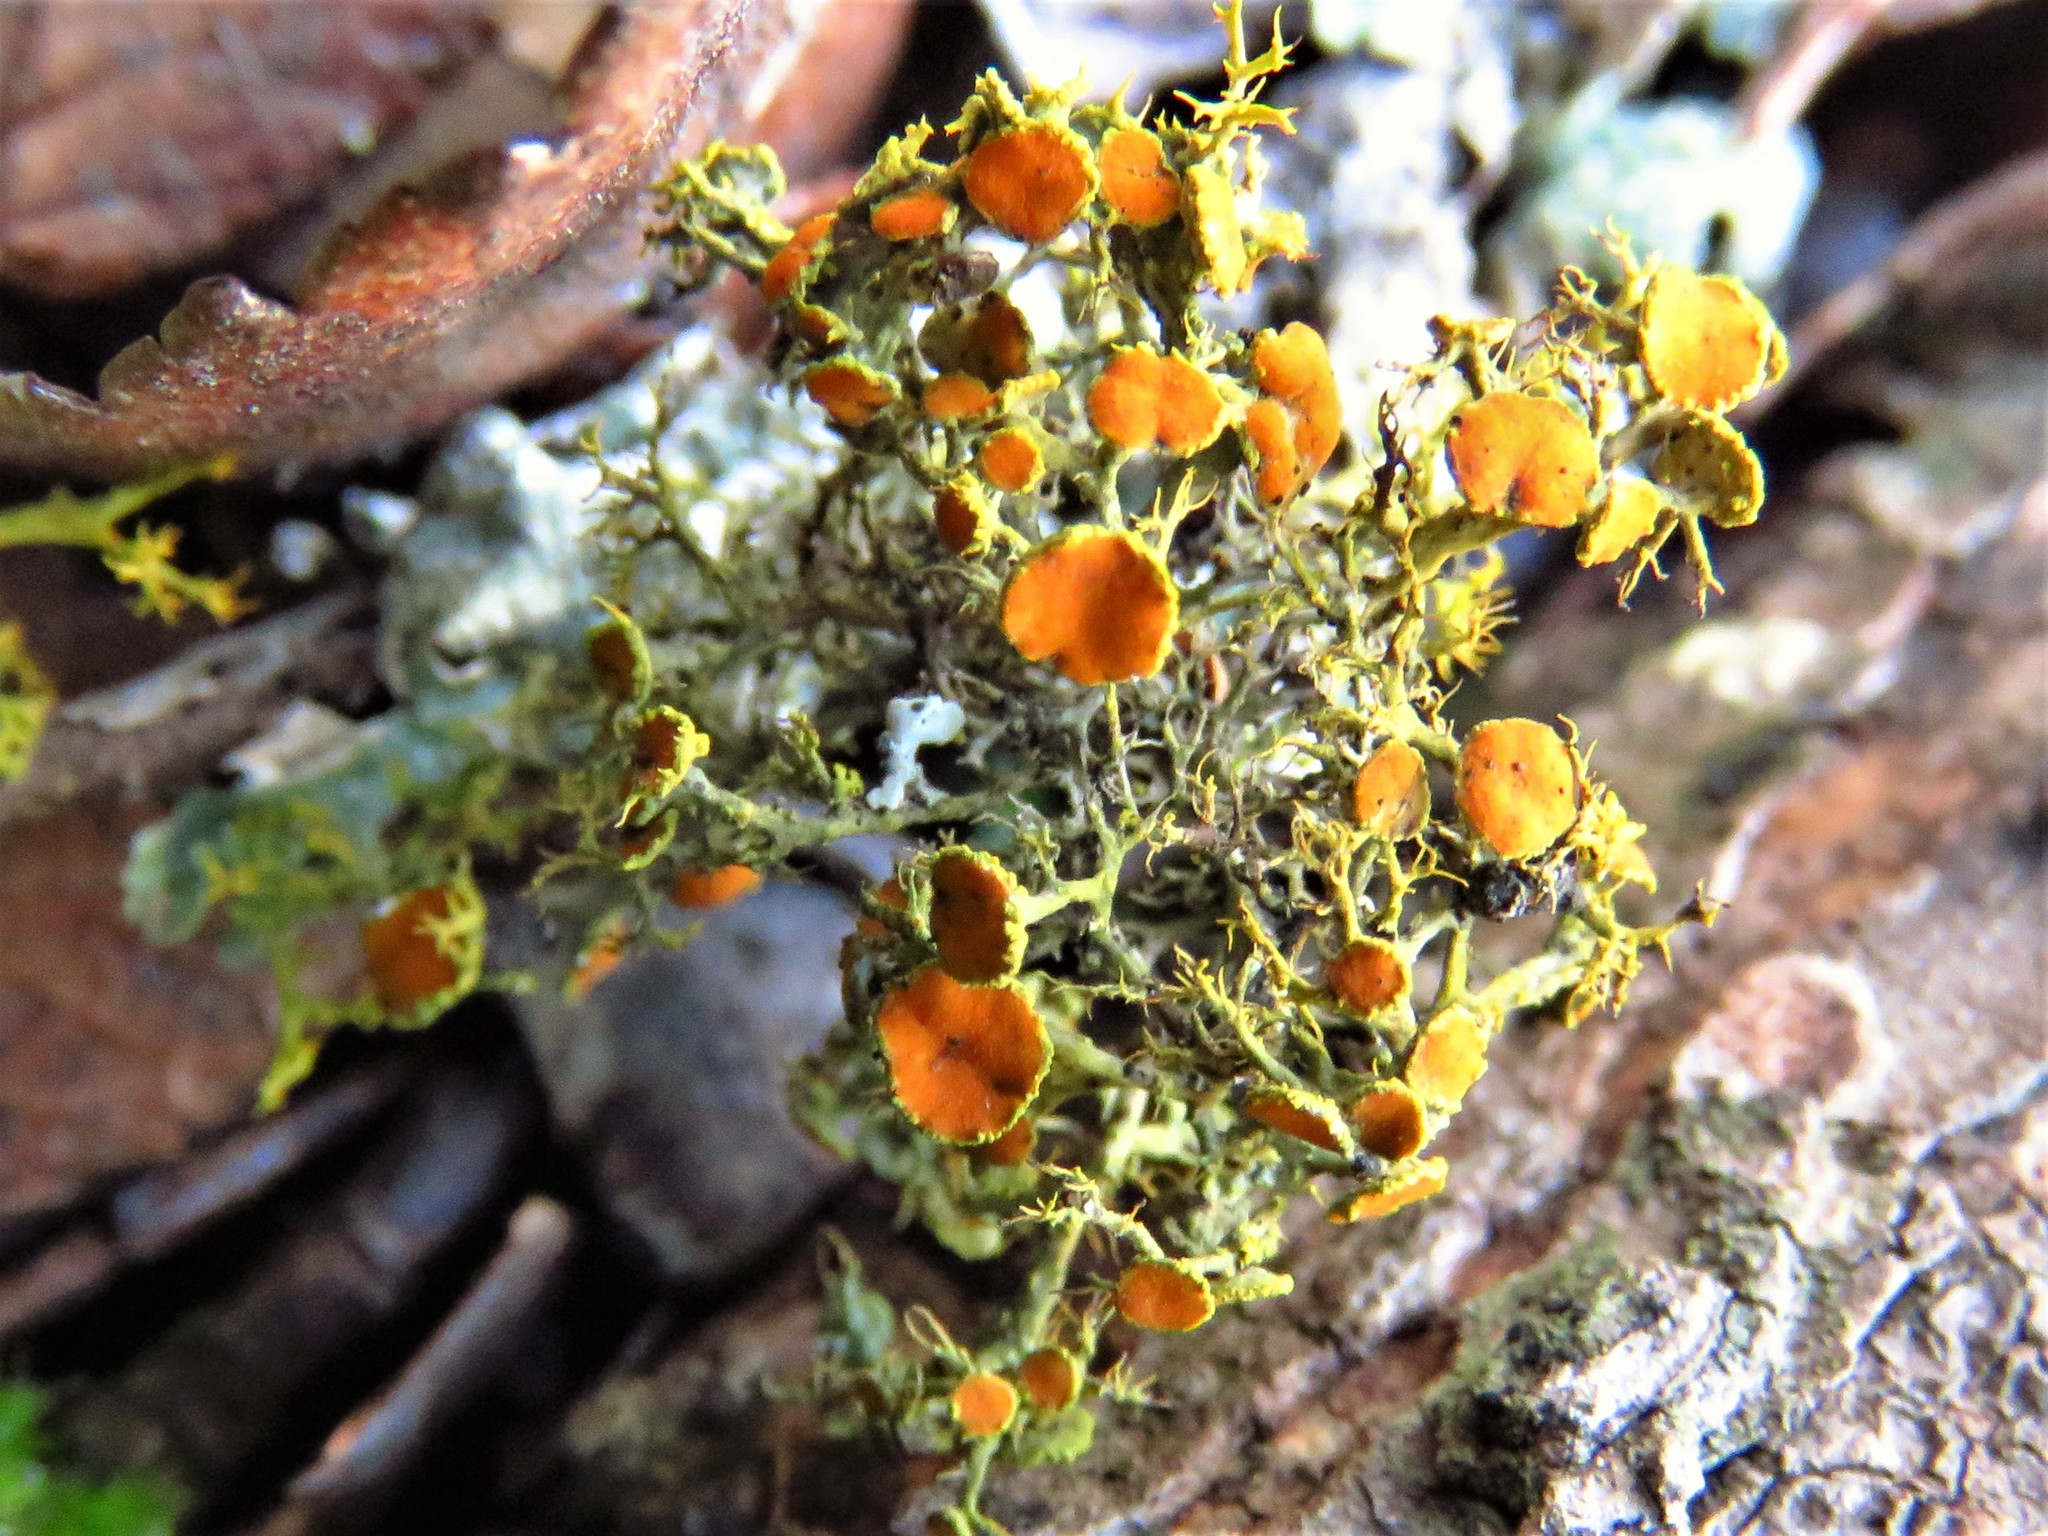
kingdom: Fungi
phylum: Ascomycota
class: Lecanoromycetes
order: Teloschistales
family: Teloschistaceae
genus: Teloschistes
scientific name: Teloschistes exilis
